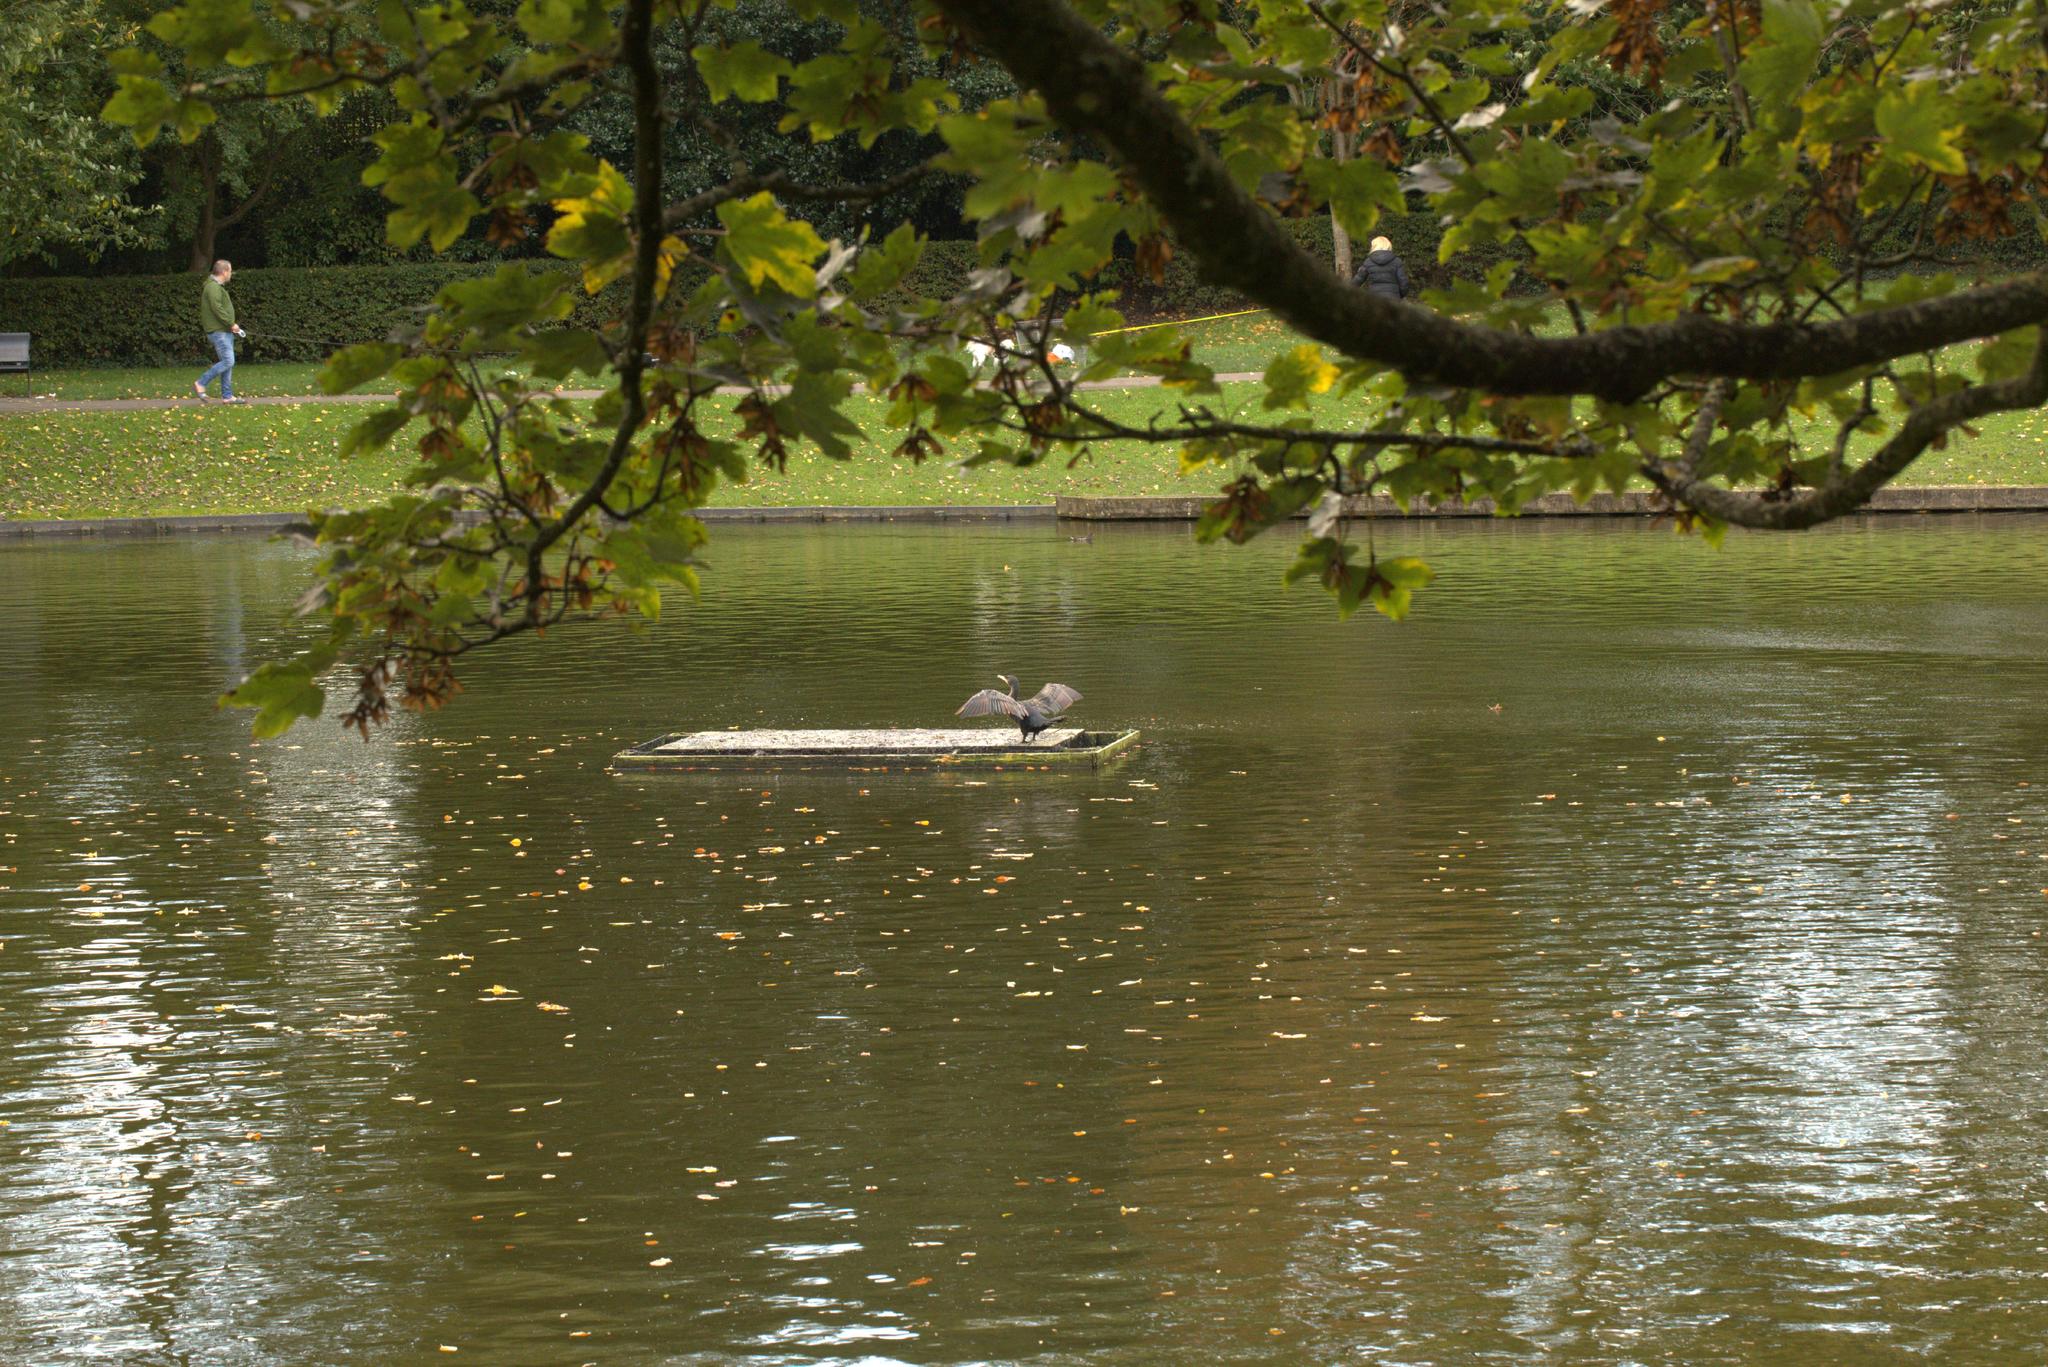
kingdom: Animalia
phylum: Chordata
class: Aves
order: Suliformes
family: Phalacrocoracidae
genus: Phalacrocorax
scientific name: Phalacrocorax carbo
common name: Great cormorant
